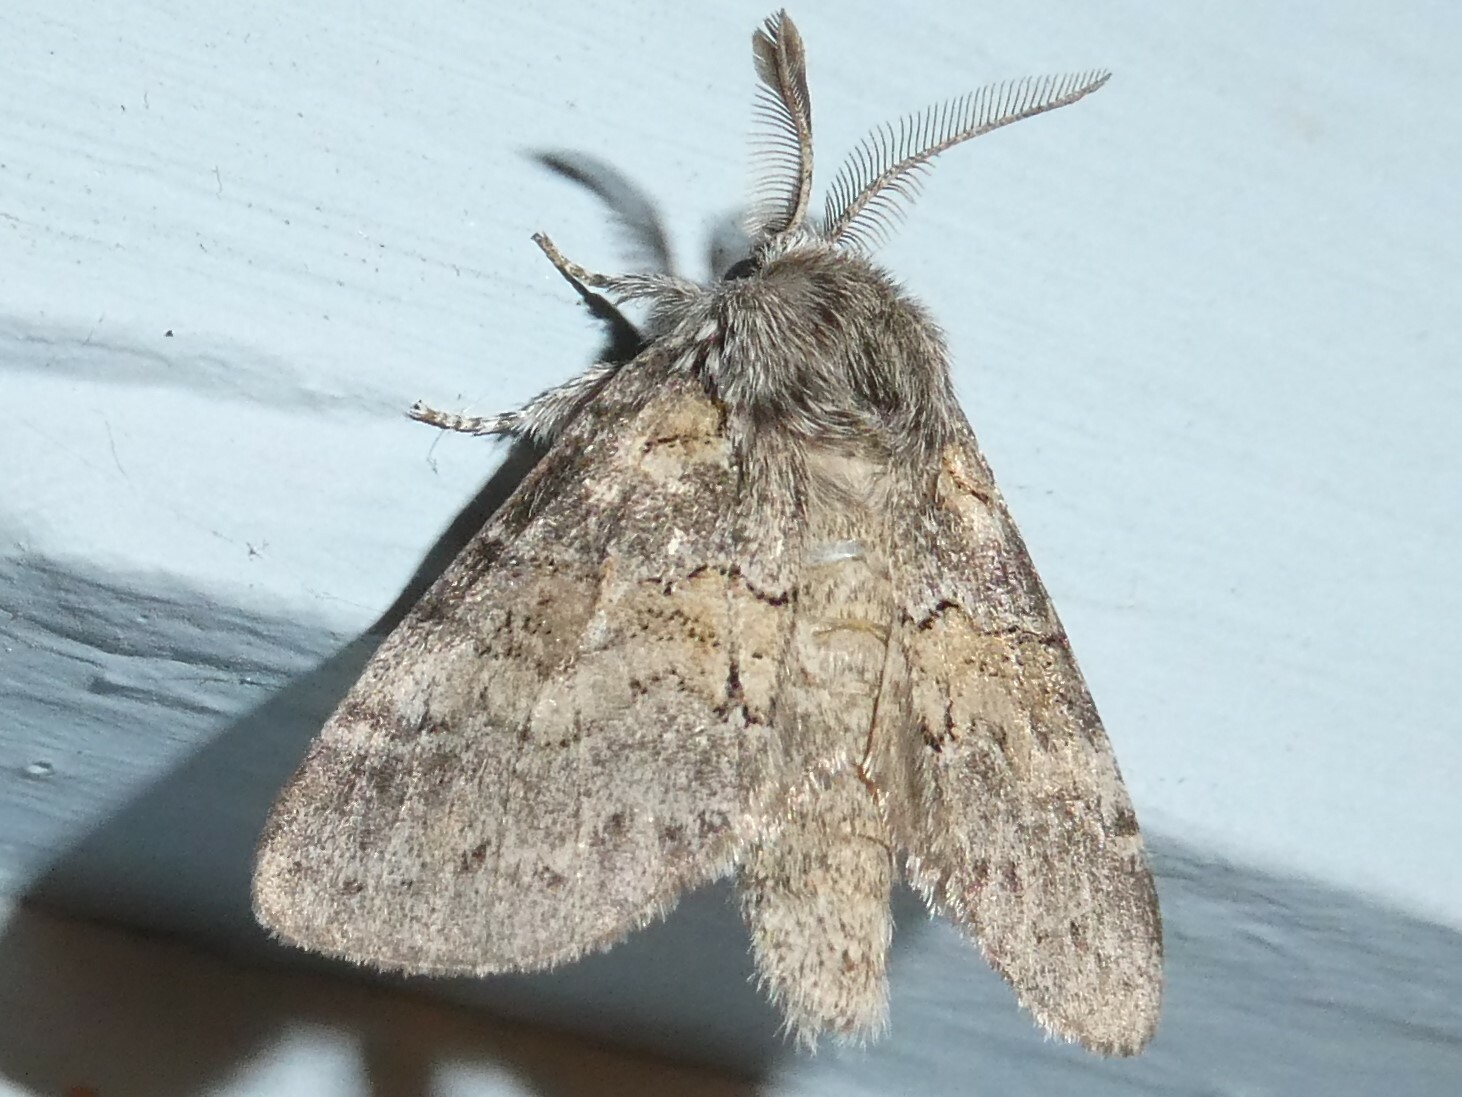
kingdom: Animalia
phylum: Arthropoda
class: Insecta
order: Lepidoptera
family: Notodontidae
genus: Gluphisia
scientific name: Gluphisia septentrionis
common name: Common gluphisia
